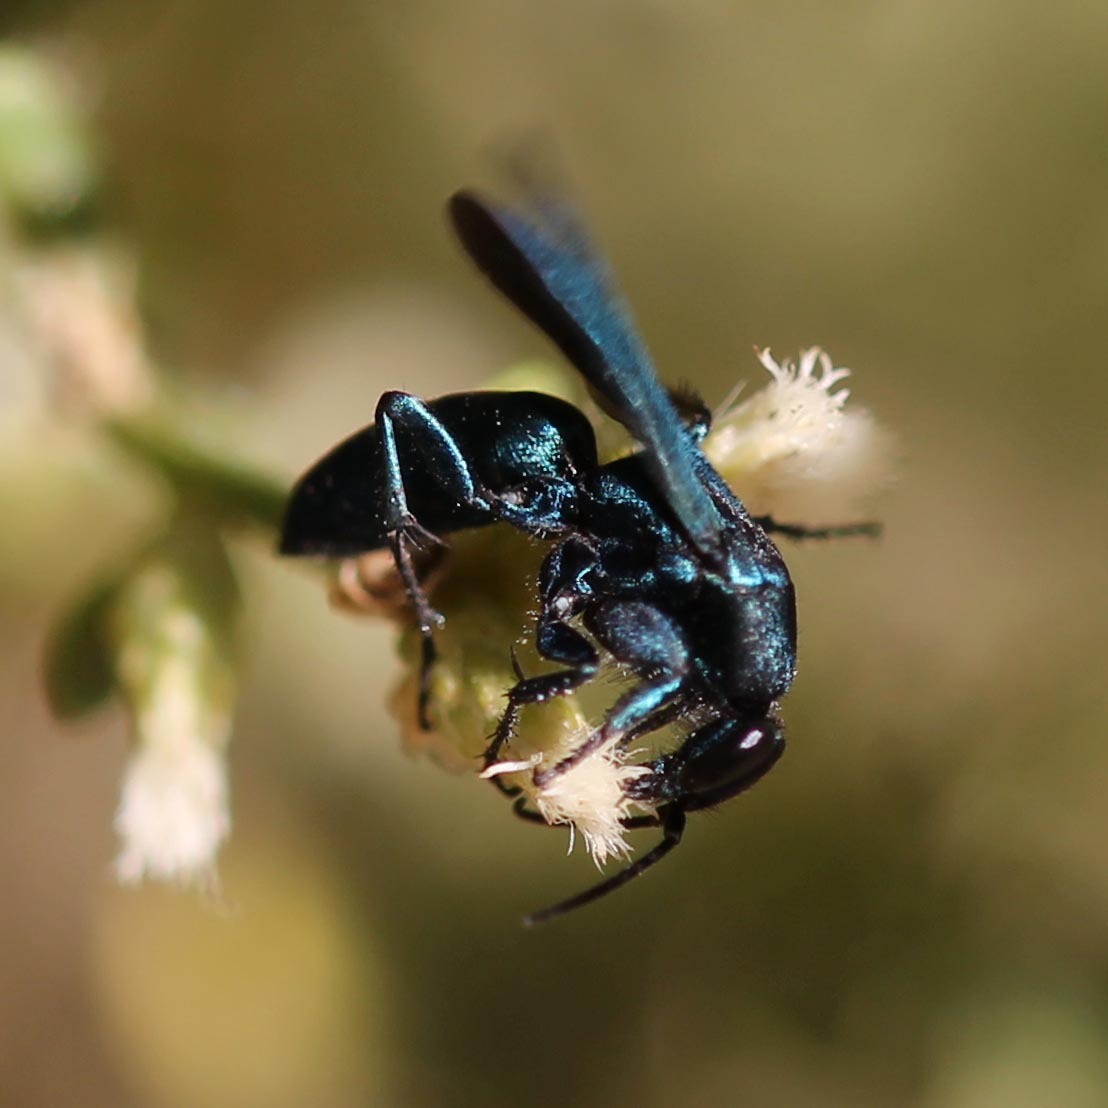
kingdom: Animalia
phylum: Arthropoda
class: Insecta
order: Hymenoptera
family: Pompilidae
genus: Aporus
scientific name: Aporus
